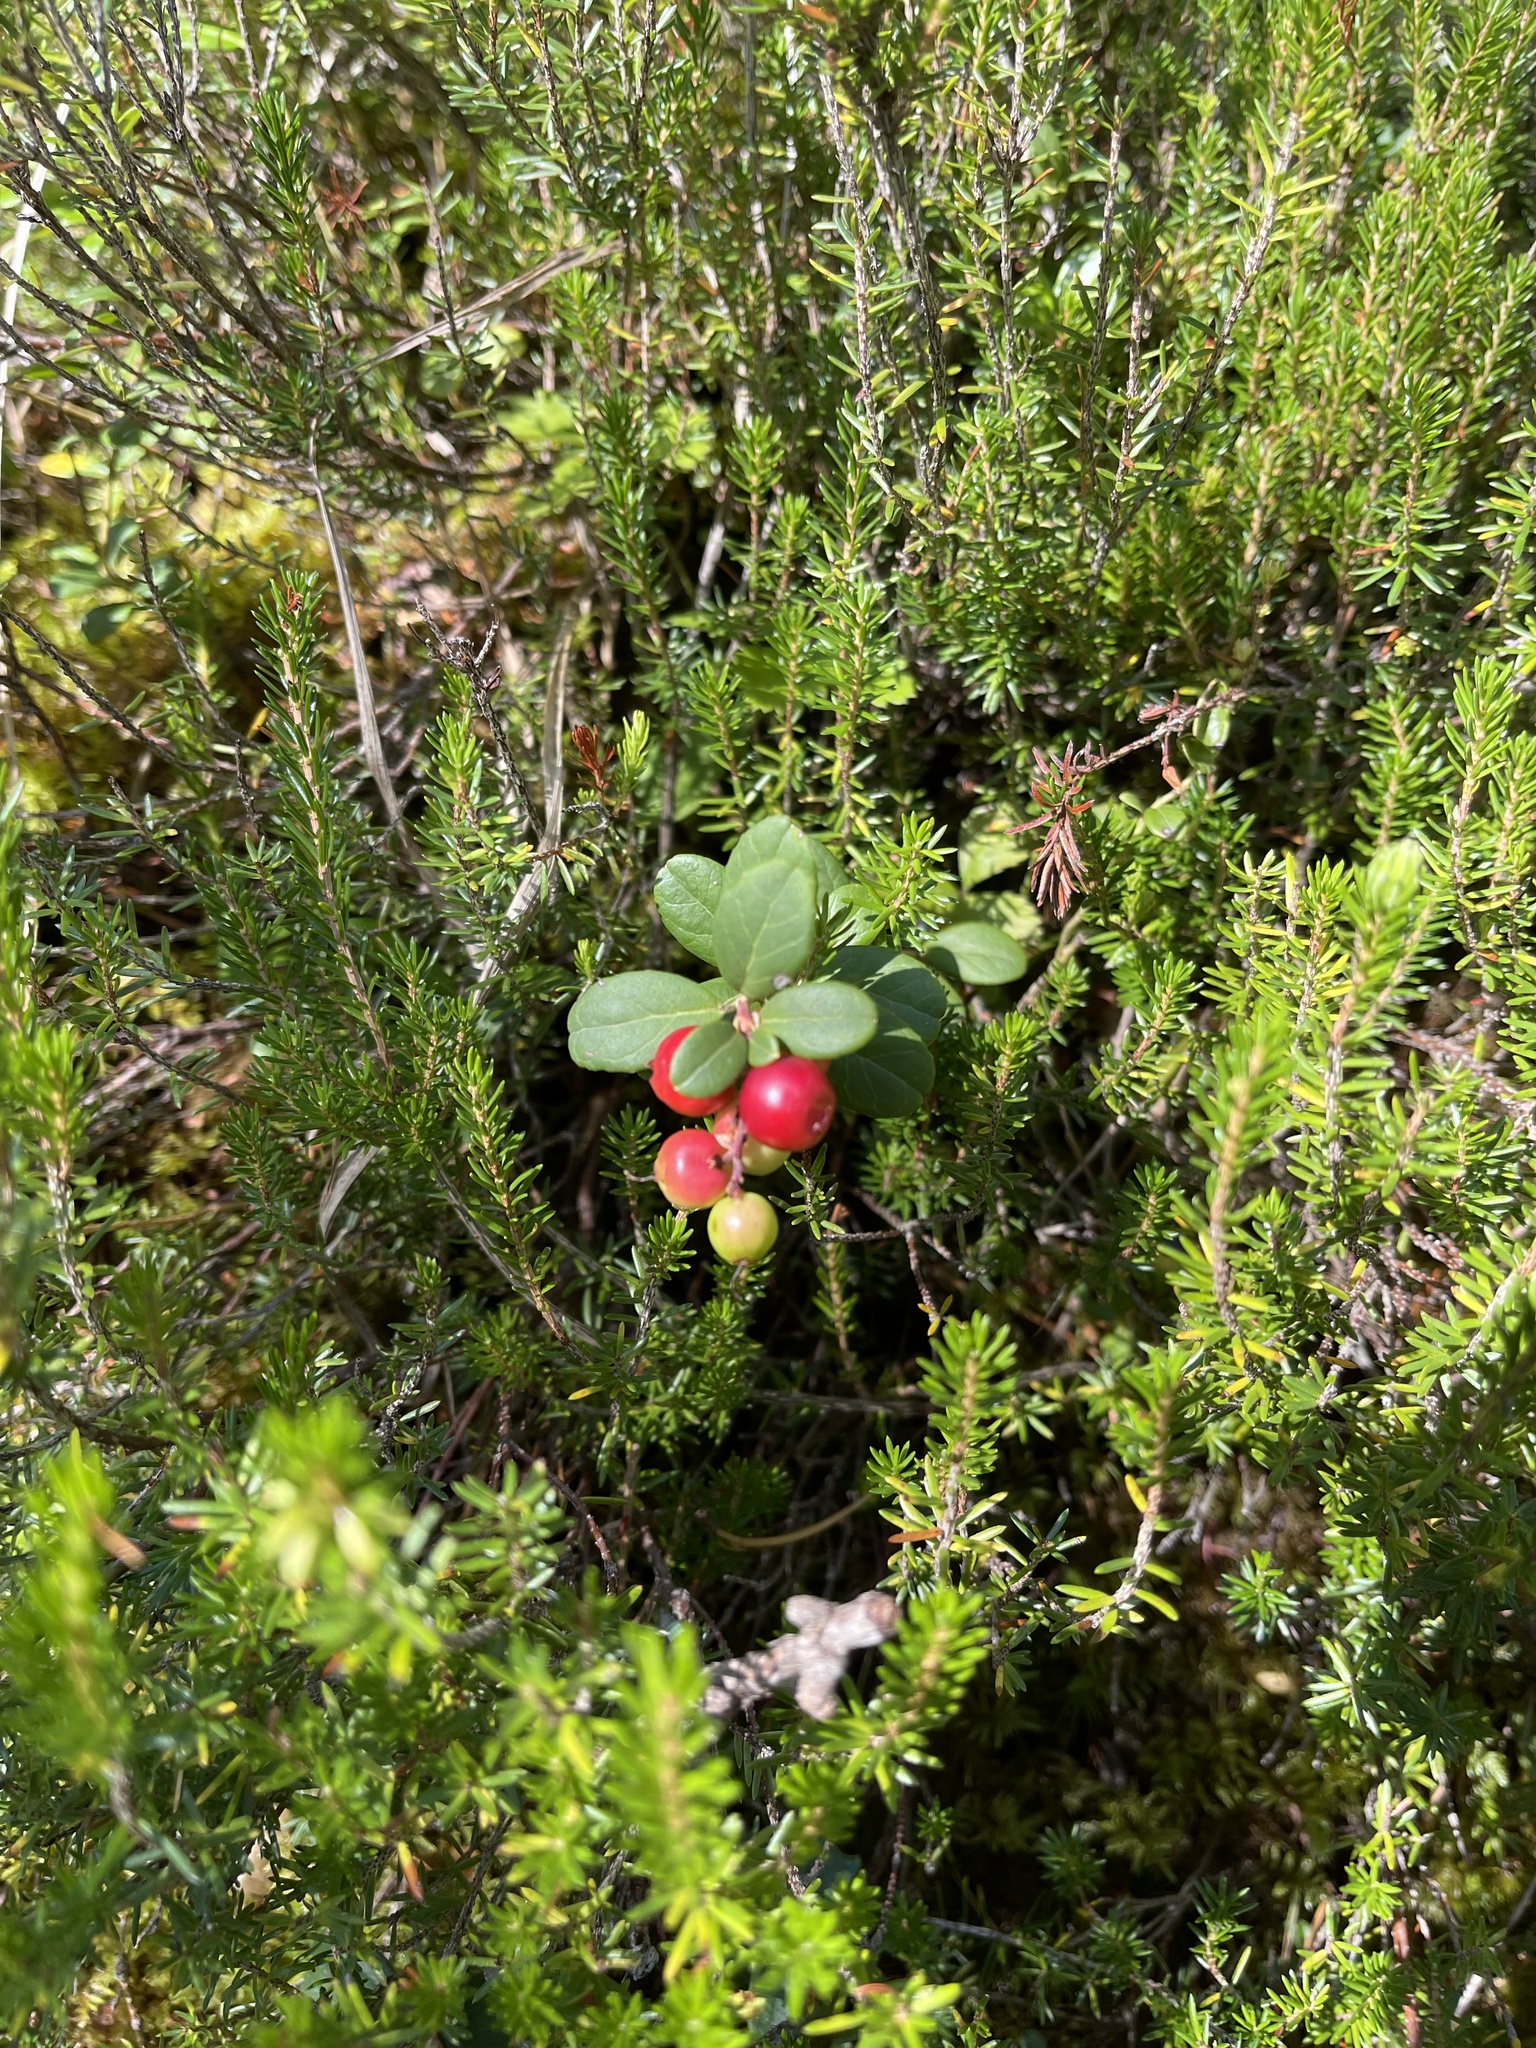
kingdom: Plantae
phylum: Tracheophyta
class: Magnoliopsida
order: Ericales
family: Ericaceae
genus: Vaccinium
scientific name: Vaccinium vitis-idaea
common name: Cowberry
